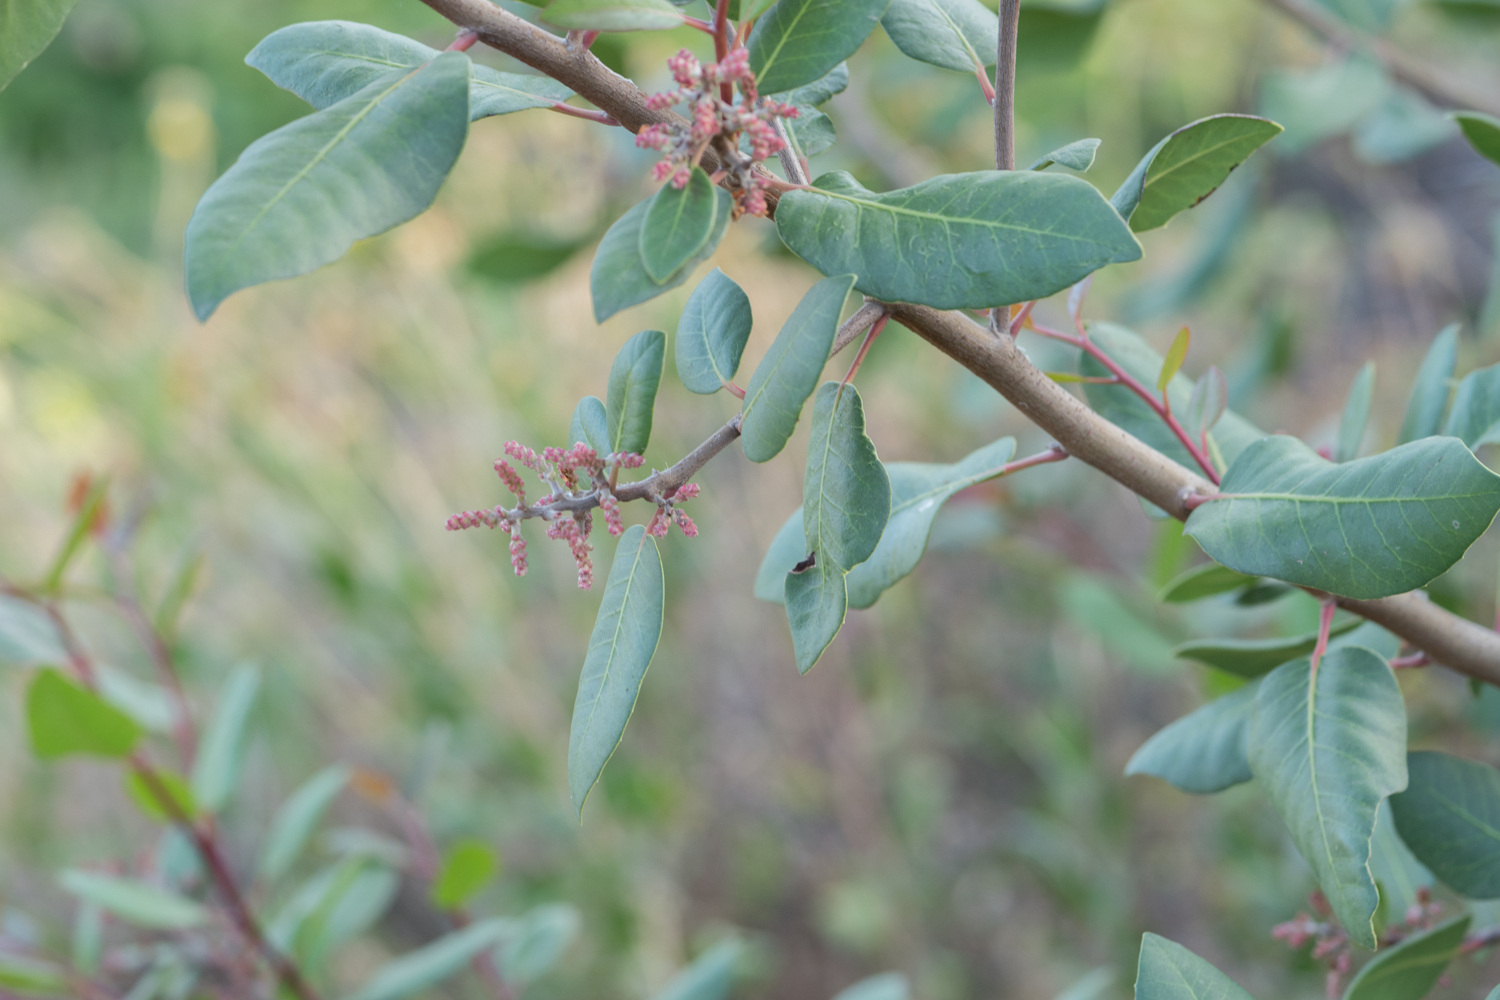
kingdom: Plantae
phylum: Tracheophyta
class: Magnoliopsida
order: Sapindales
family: Anacardiaceae
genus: Rhus
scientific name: Rhus
